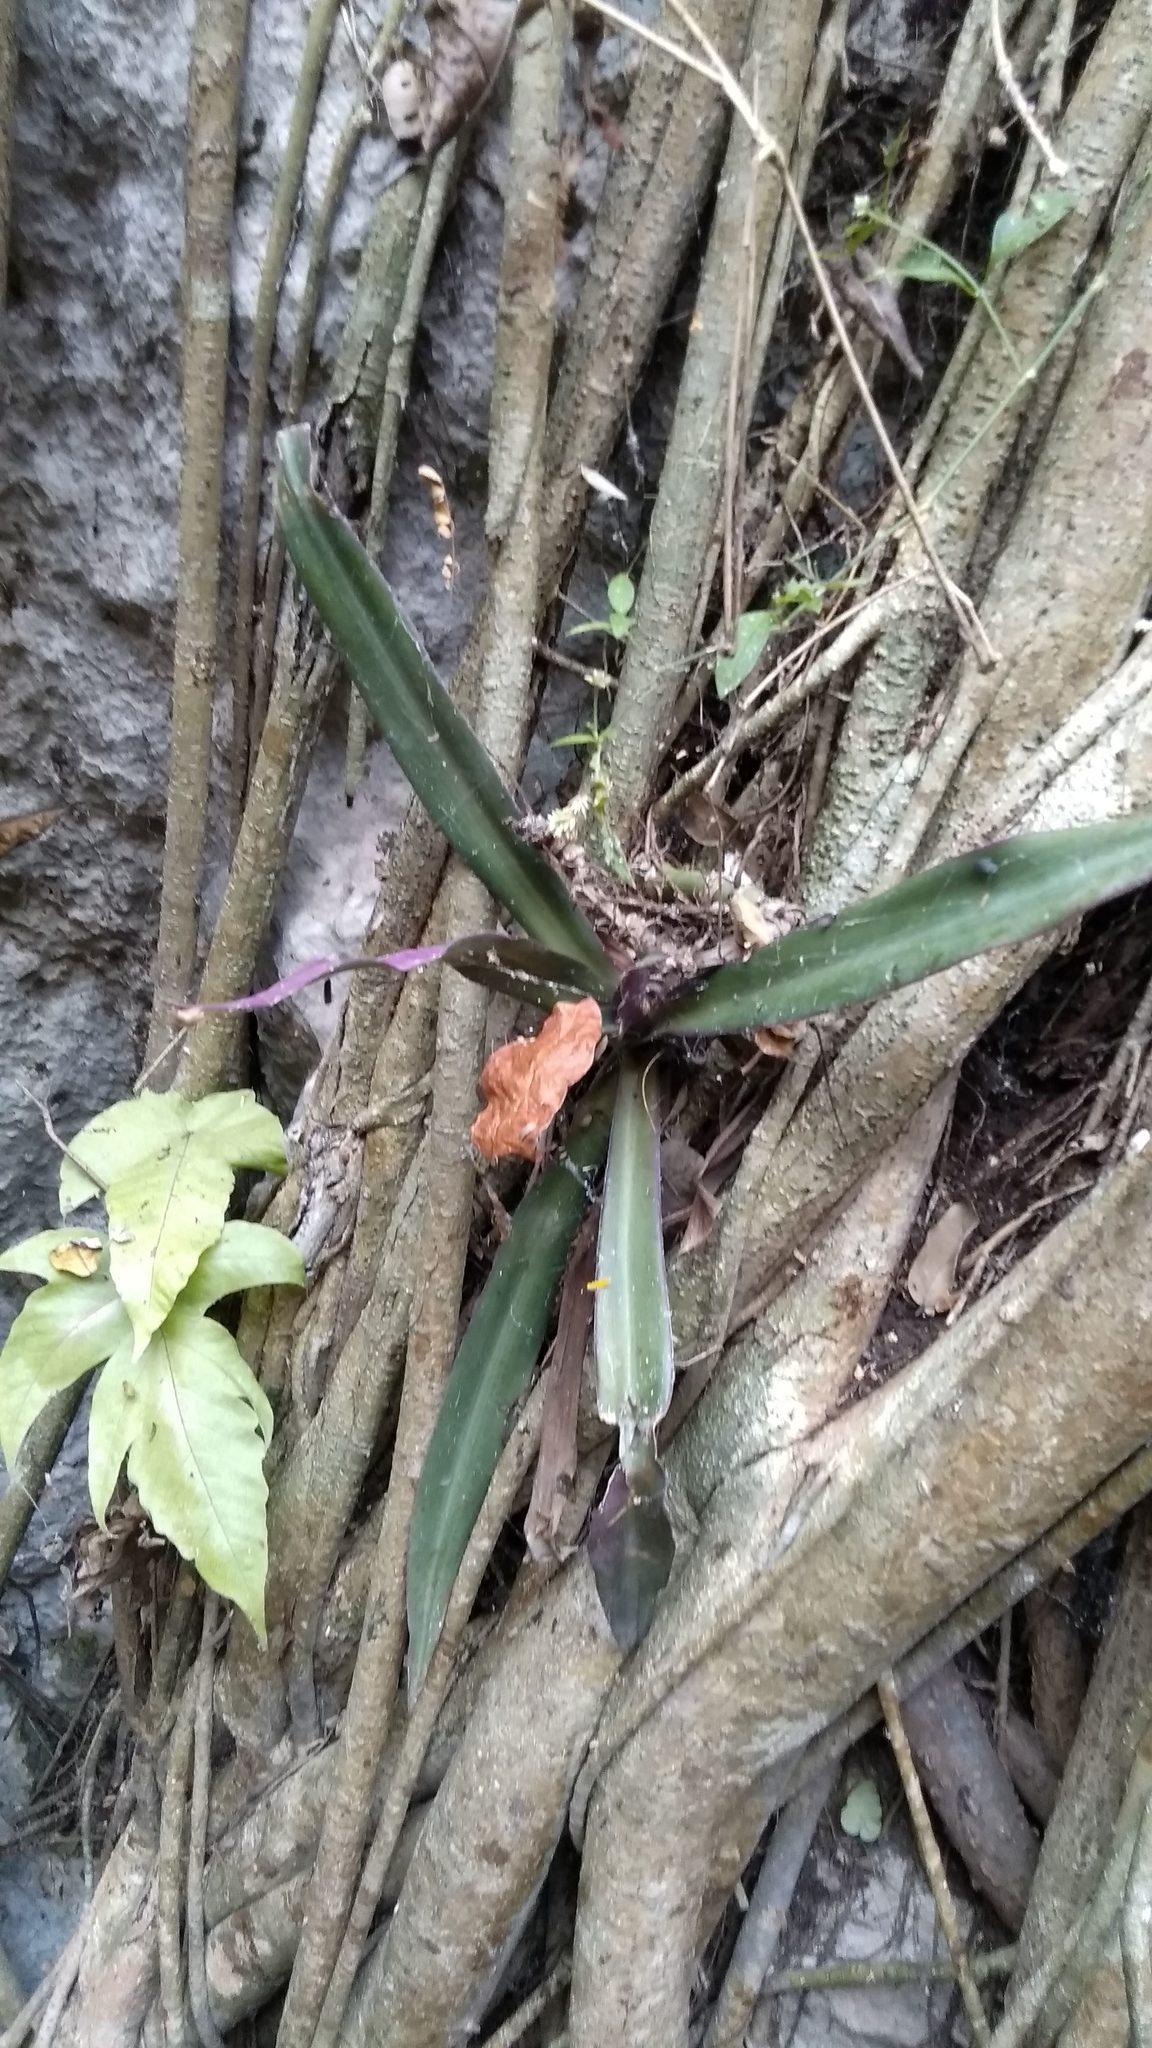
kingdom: Plantae
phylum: Tracheophyta
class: Liliopsida
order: Commelinales
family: Commelinaceae
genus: Tradescantia
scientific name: Tradescantia spathacea
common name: Boatlily
